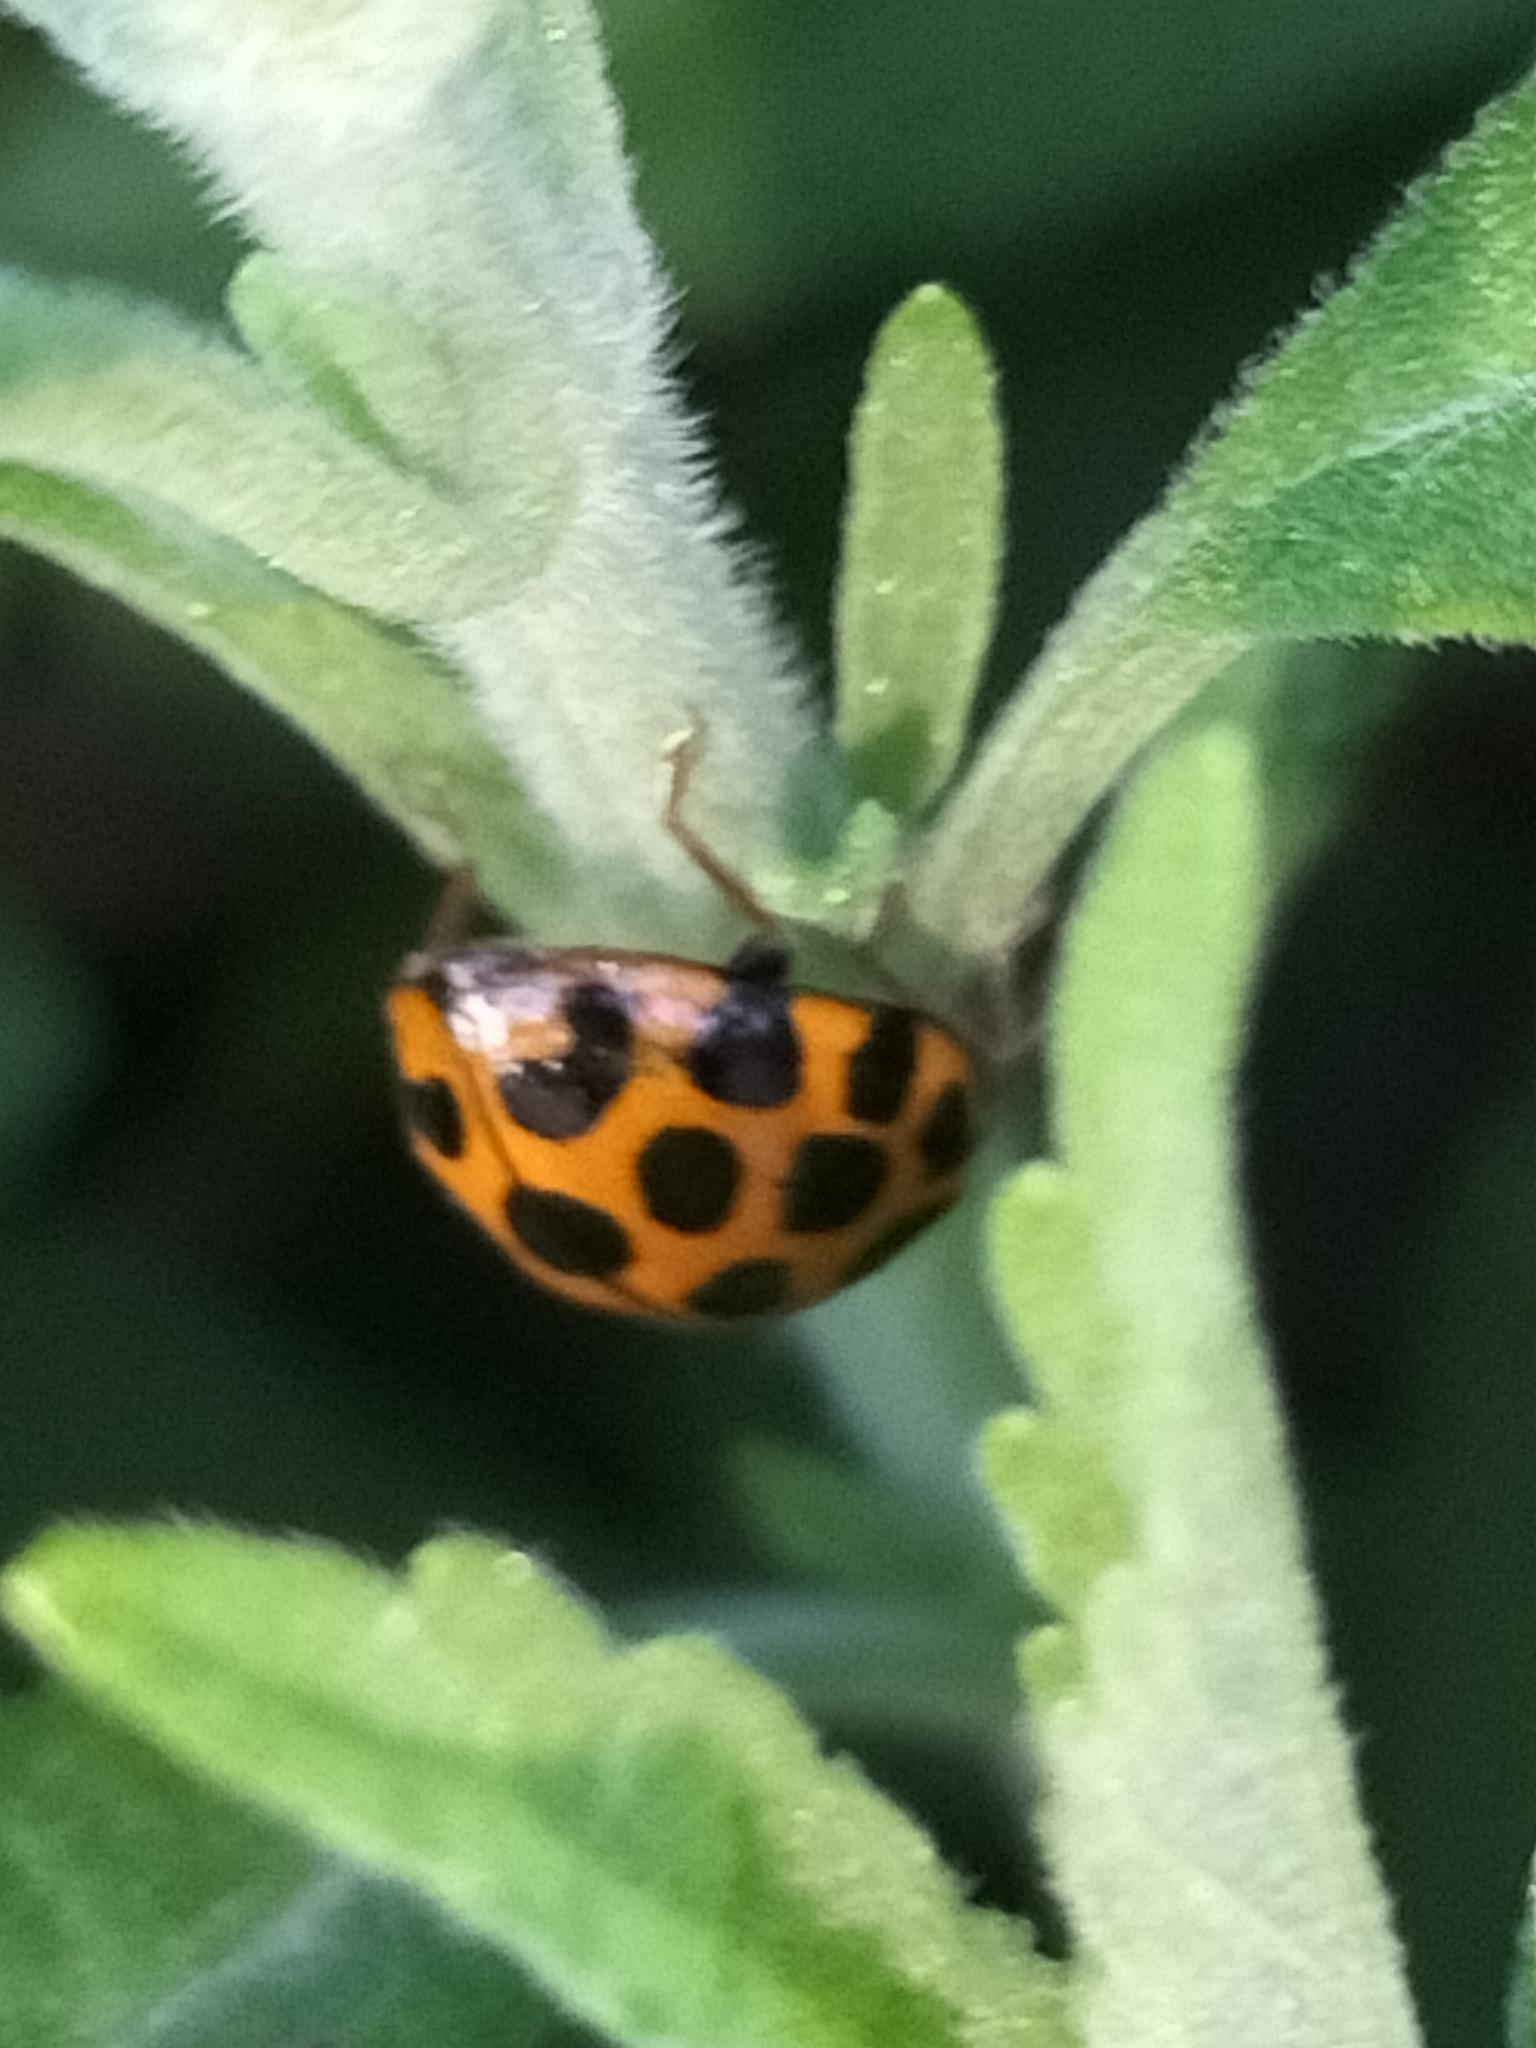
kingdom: Animalia
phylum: Arthropoda
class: Insecta
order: Coleoptera
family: Coccinellidae
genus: Harmonia
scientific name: Harmonia conformis
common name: Common spotted ladybird beetle
